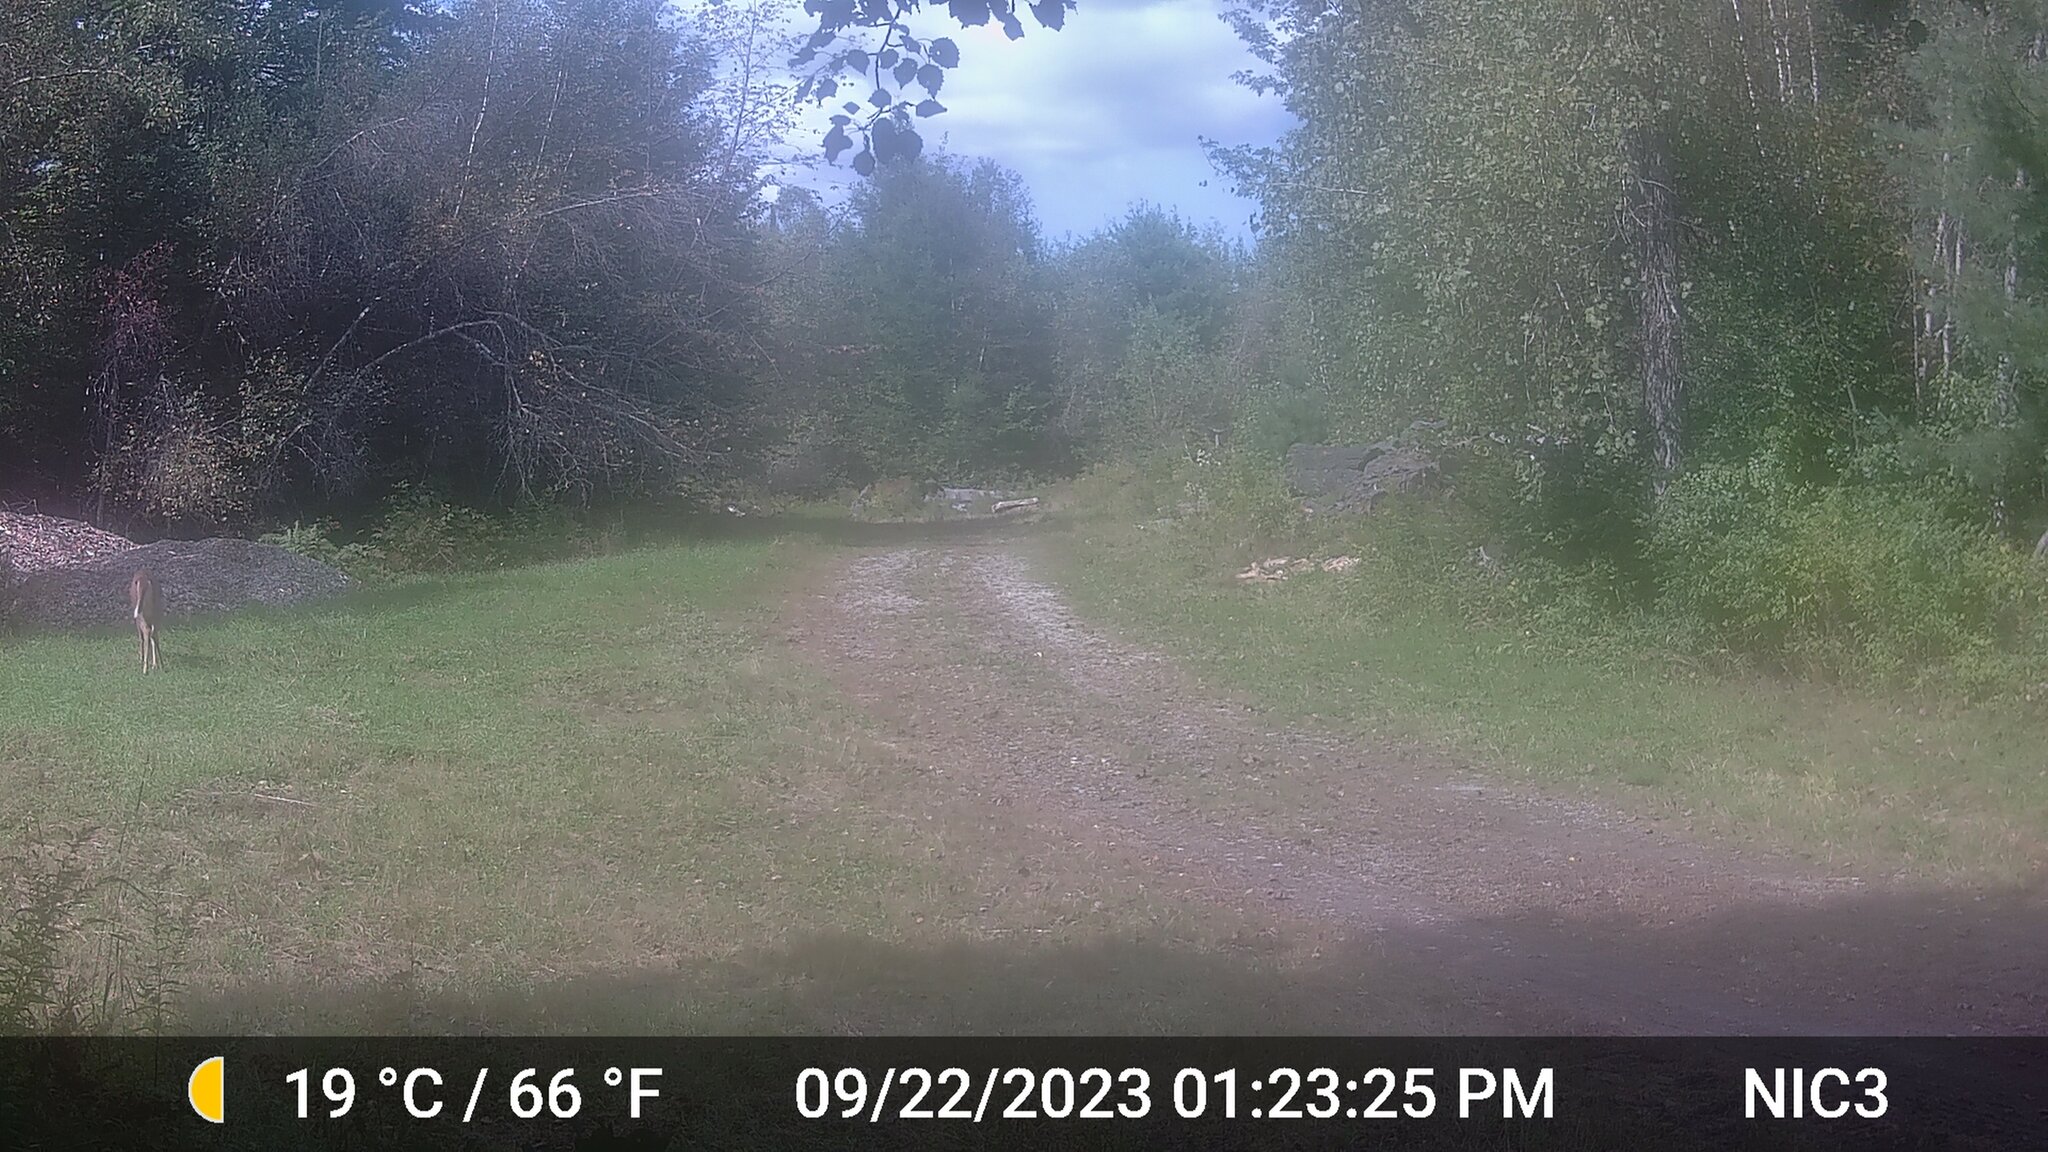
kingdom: Animalia
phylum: Chordata
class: Mammalia
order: Artiodactyla
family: Cervidae
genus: Odocoileus
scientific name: Odocoileus virginianus
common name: White-tailed deer
